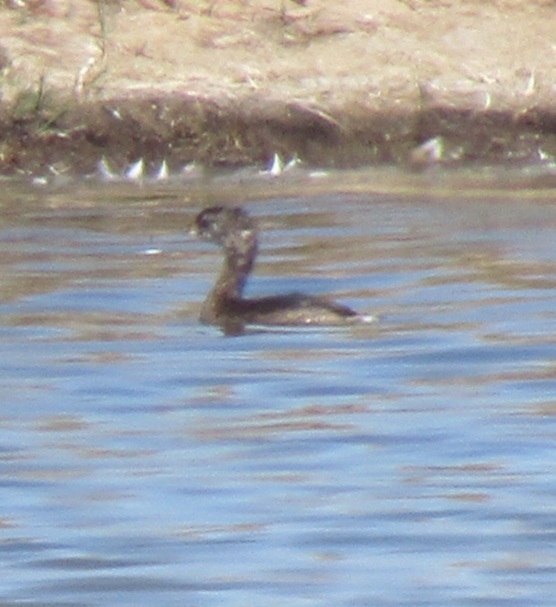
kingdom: Animalia
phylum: Chordata
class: Aves
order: Podicipediformes
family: Podicipedidae
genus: Podilymbus
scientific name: Podilymbus podiceps
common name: Pied-billed grebe
